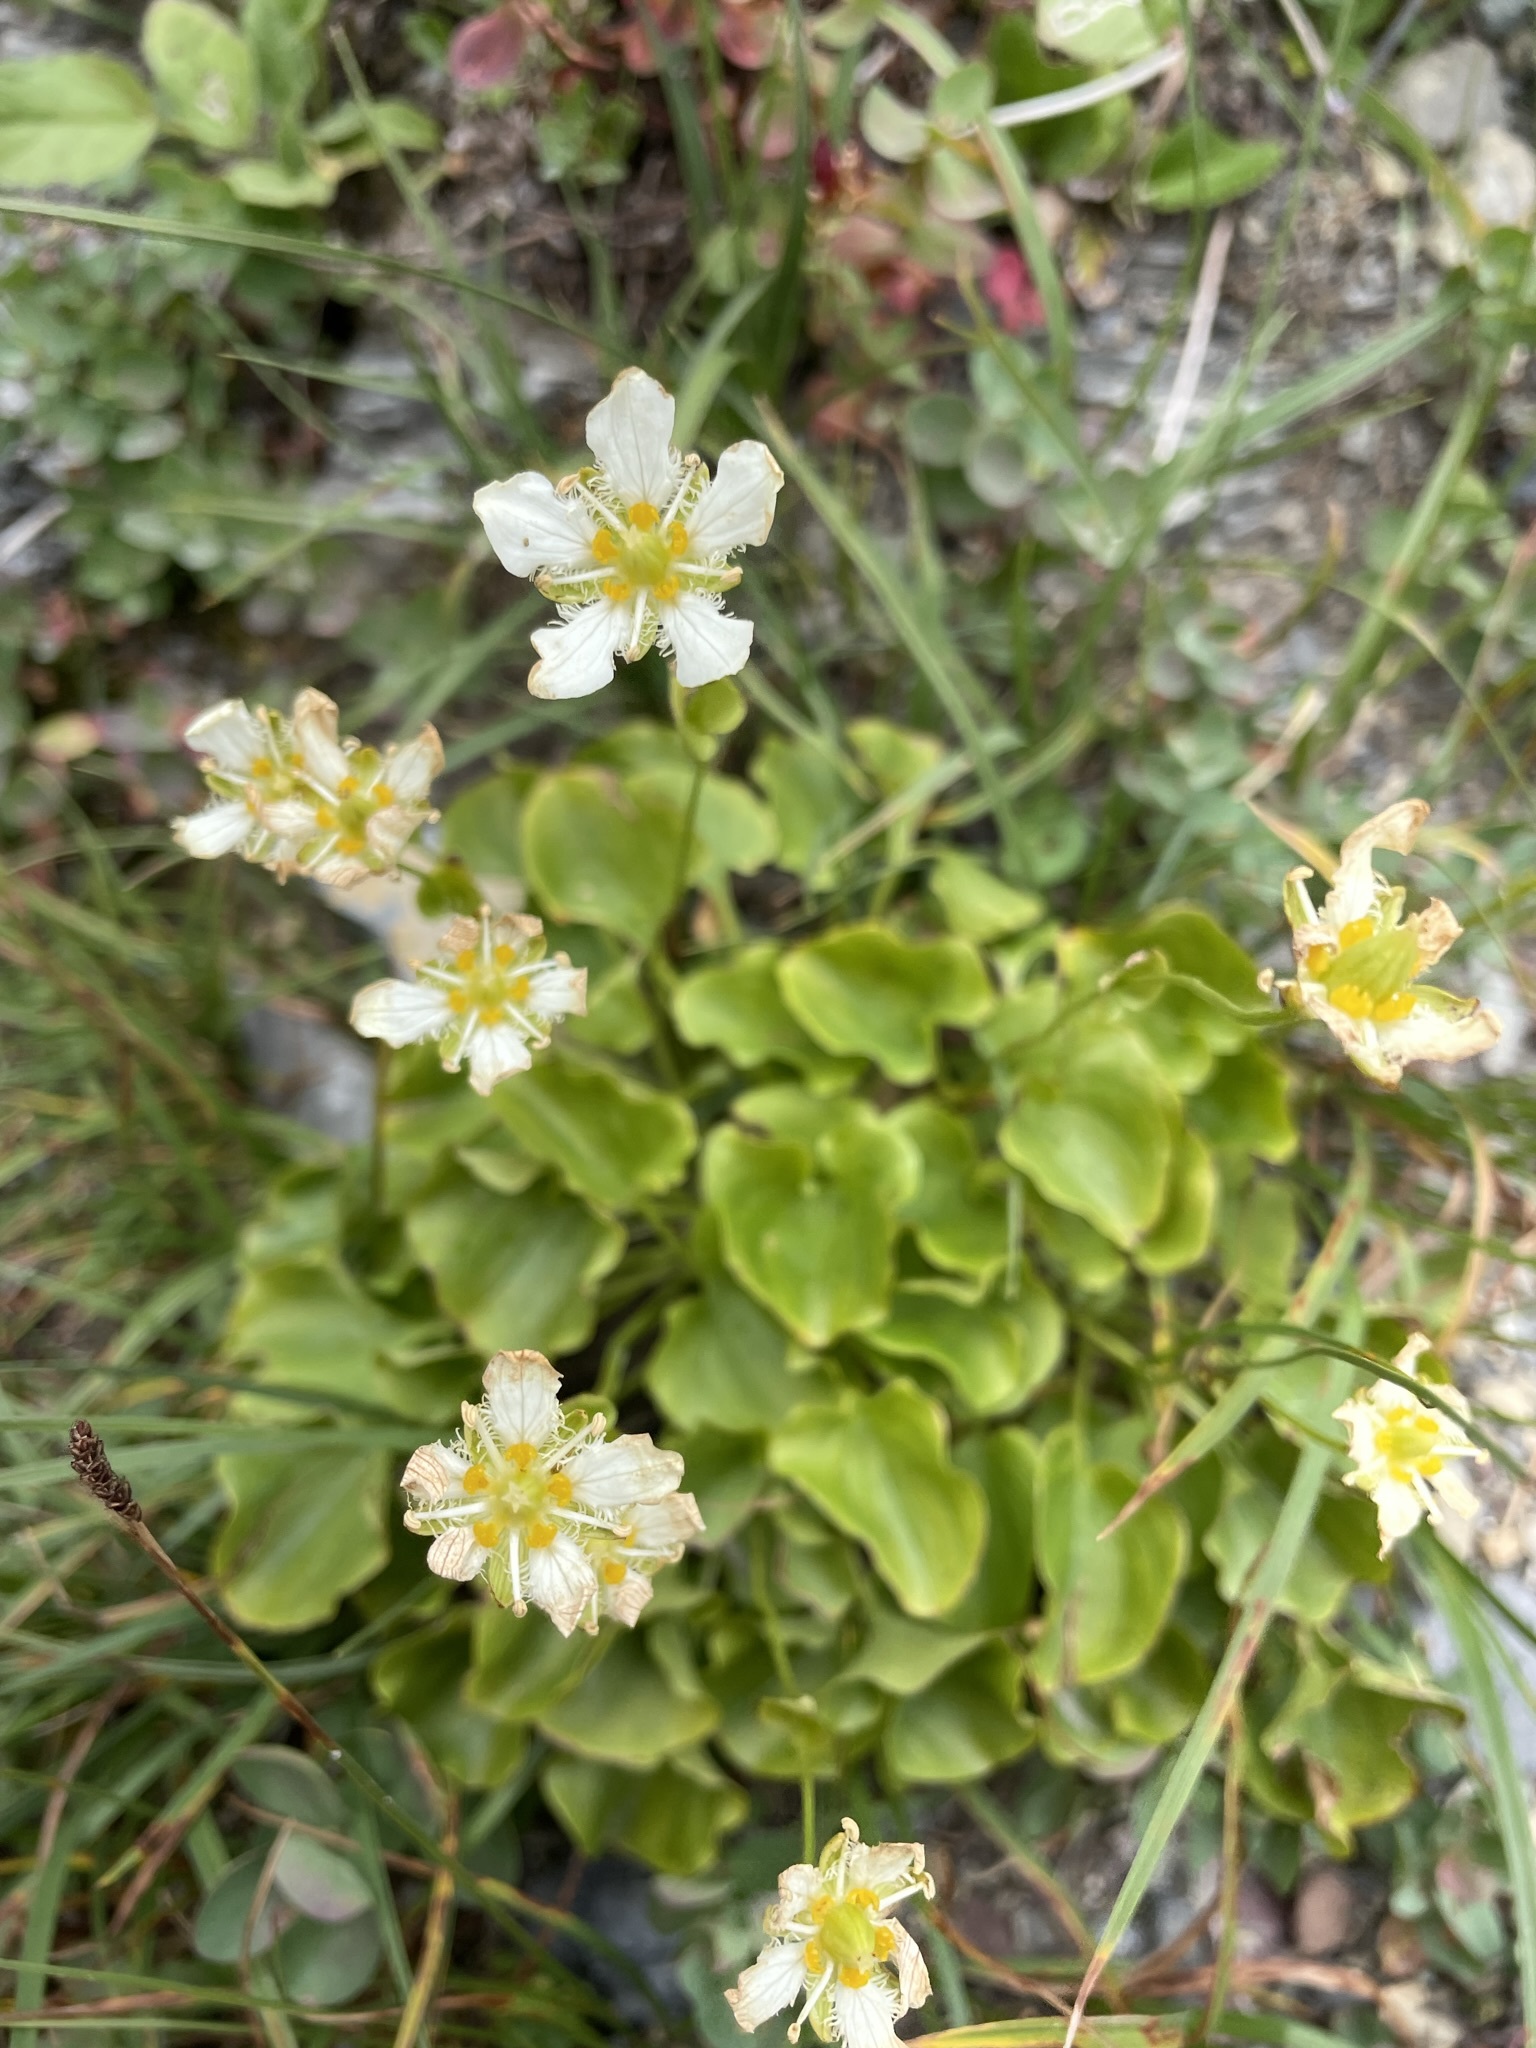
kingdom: Plantae
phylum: Tracheophyta
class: Magnoliopsida
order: Celastrales
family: Parnassiaceae
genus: Parnassia
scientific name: Parnassia fimbriata
